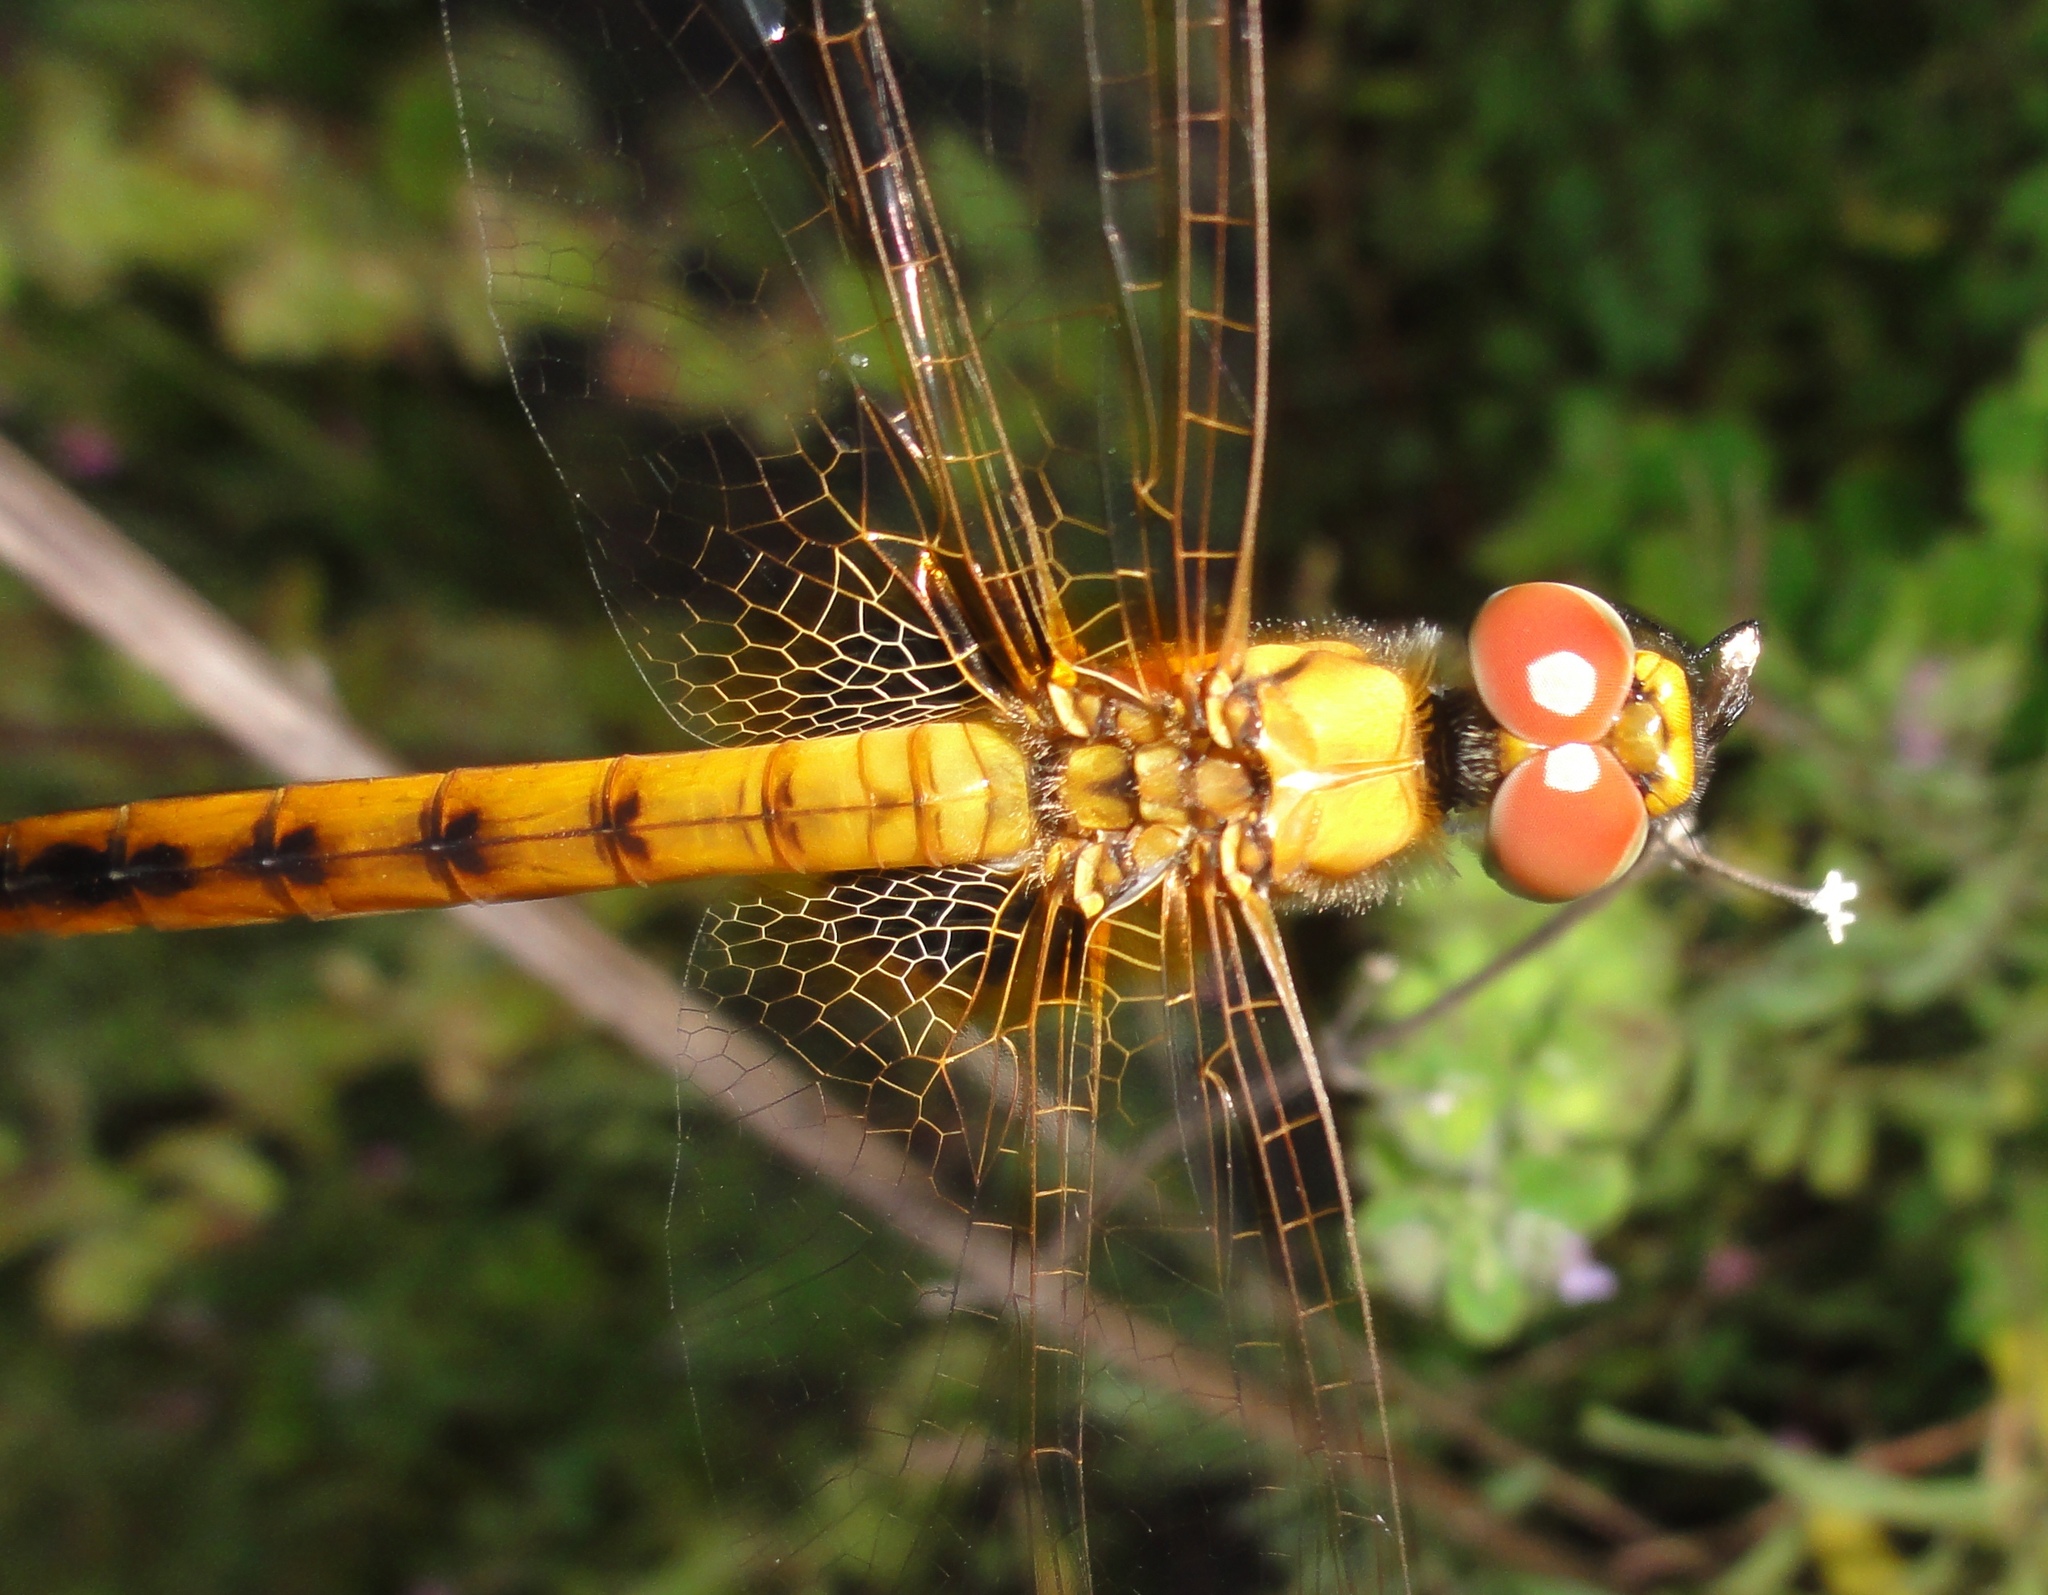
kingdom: Animalia
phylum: Arthropoda
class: Insecta
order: Odonata
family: Libellulidae
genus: Aethriamanta
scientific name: Aethriamanta aethra
